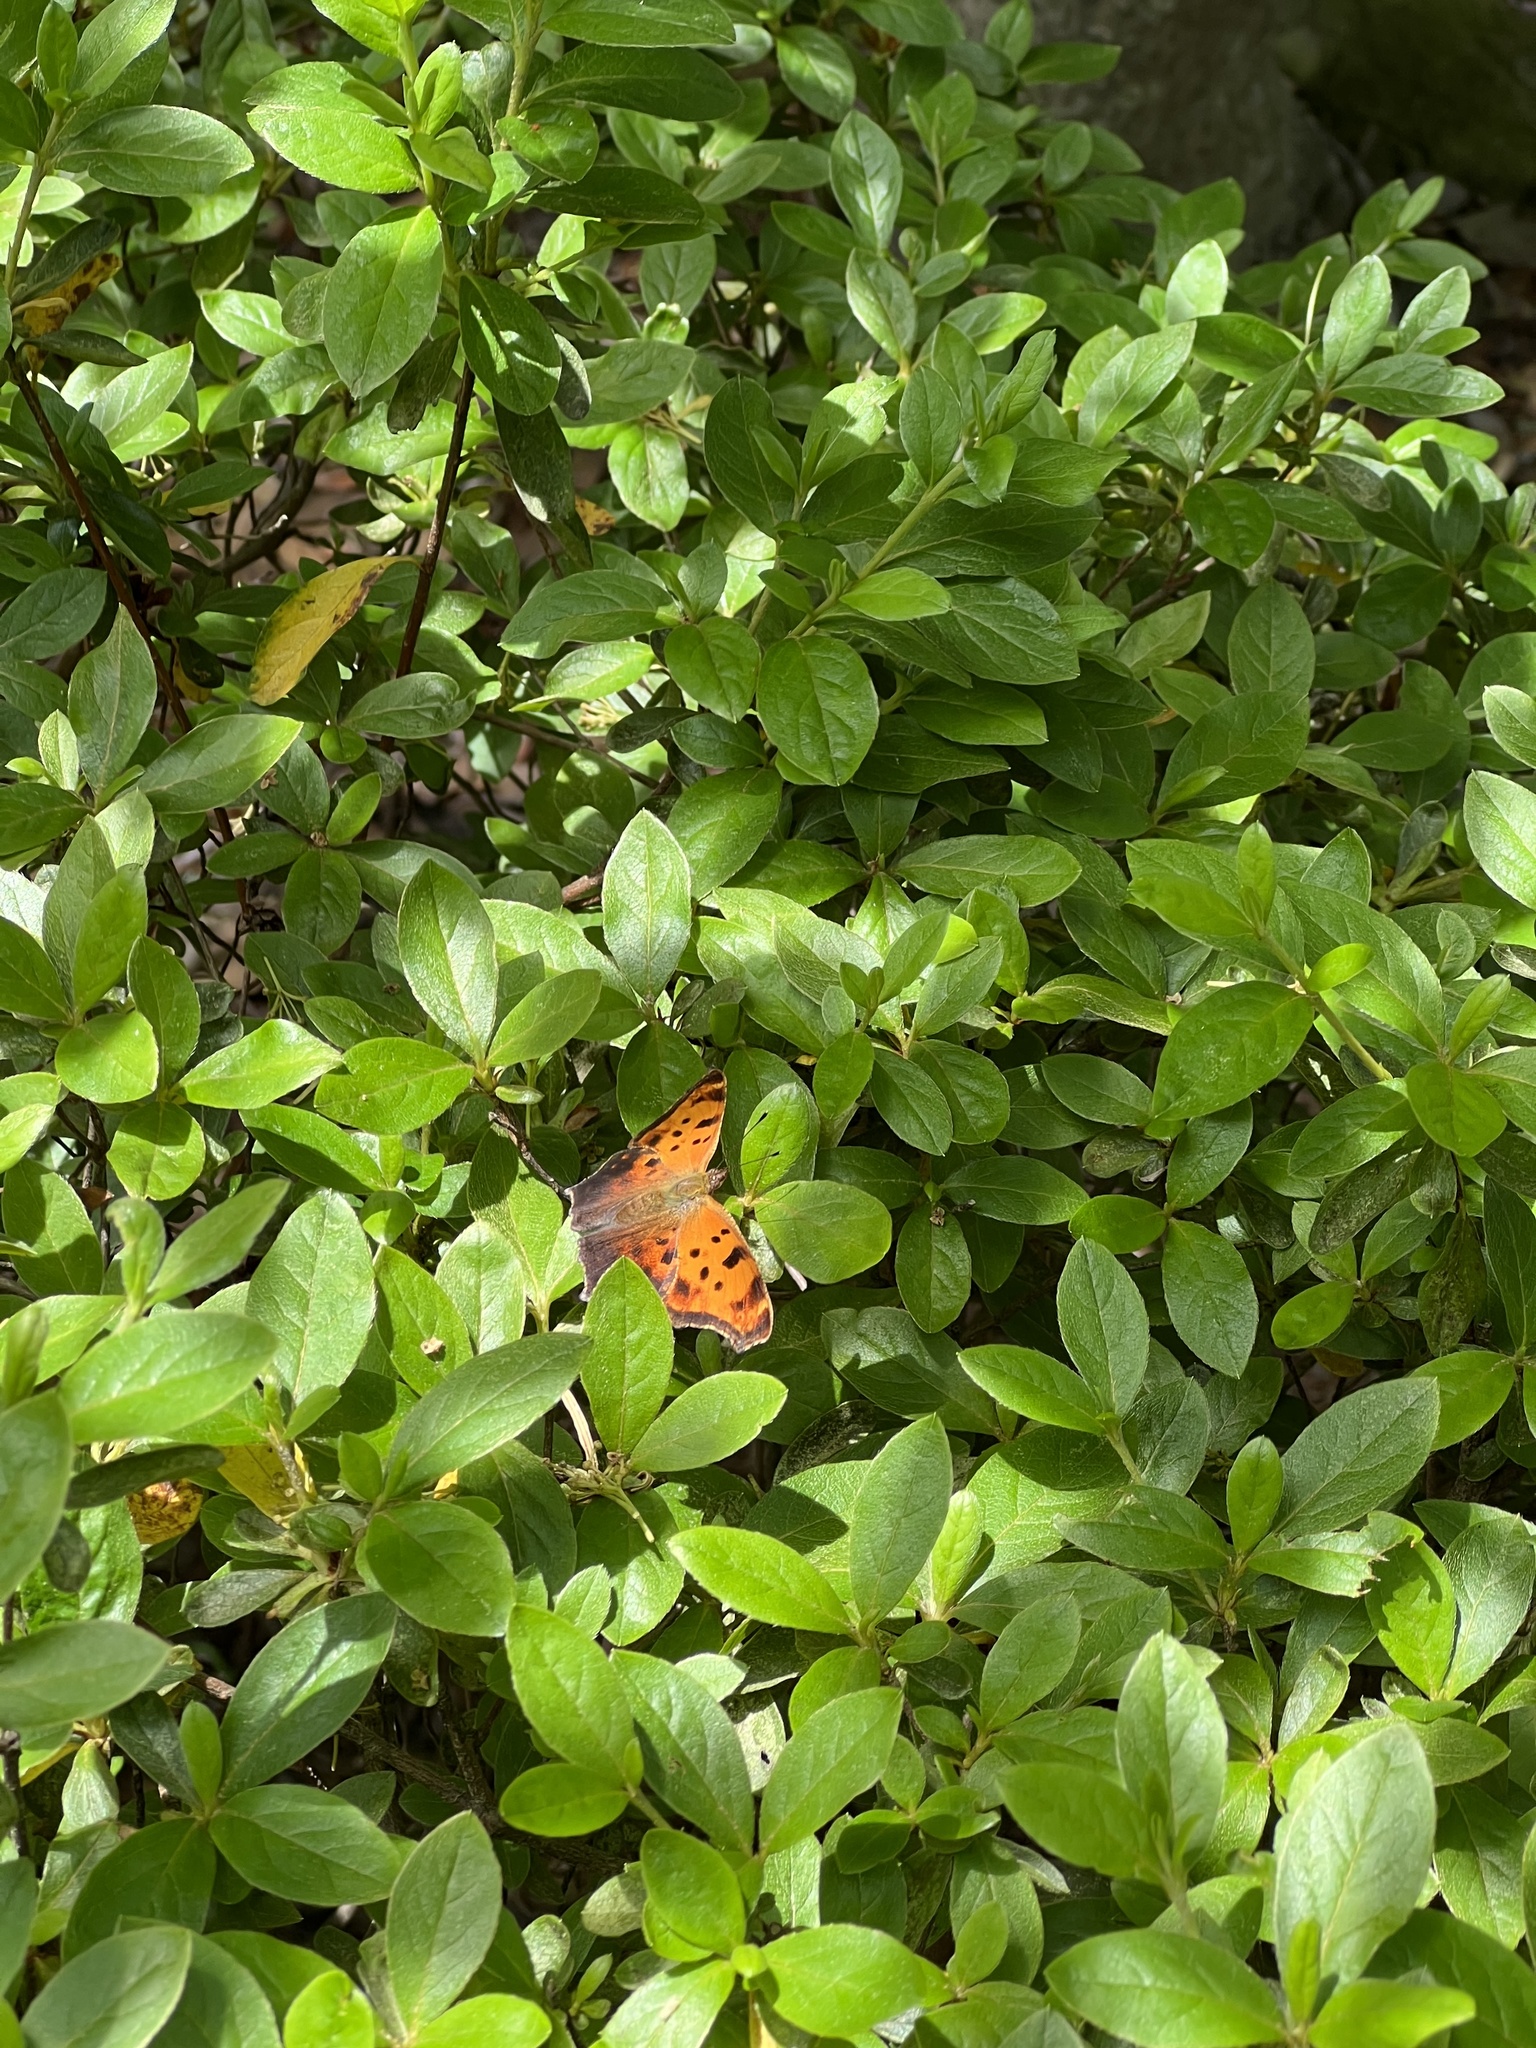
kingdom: Animalia
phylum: Arthropoda
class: Insecta
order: Lepidoptera
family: Nymphalidae
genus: Polygonia
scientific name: Polygonia comma
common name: Eastern comma
